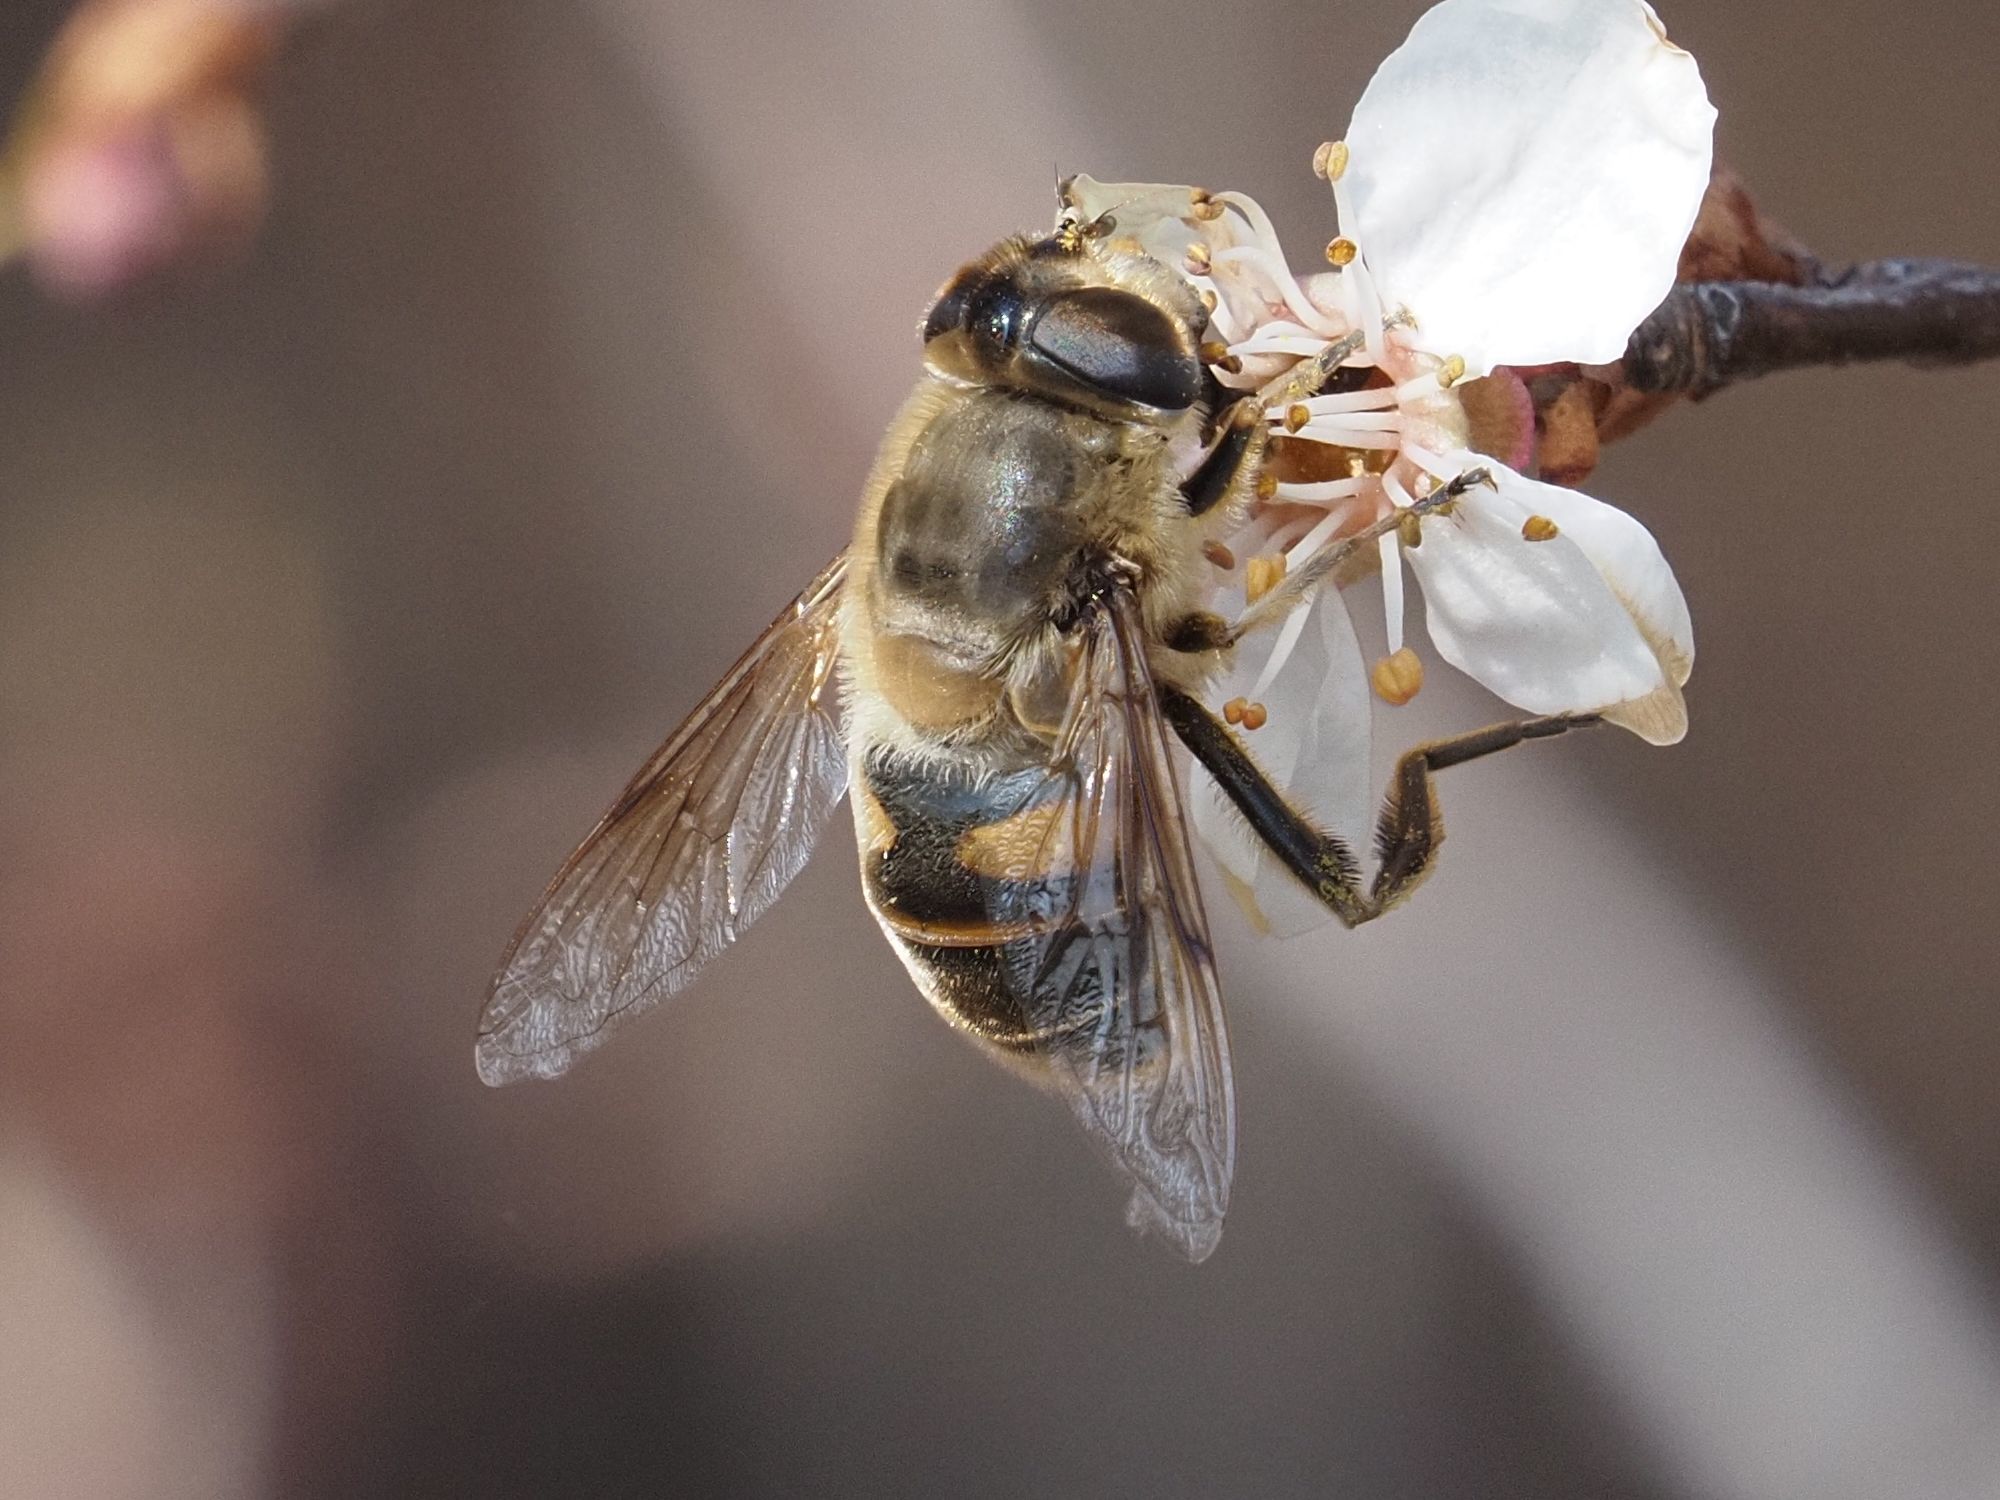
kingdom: Animalia
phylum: Arthropoda
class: Insecta
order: Diptera
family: Syrphidae
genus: Eristalis
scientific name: Eristalis tenax
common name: Drone fly
